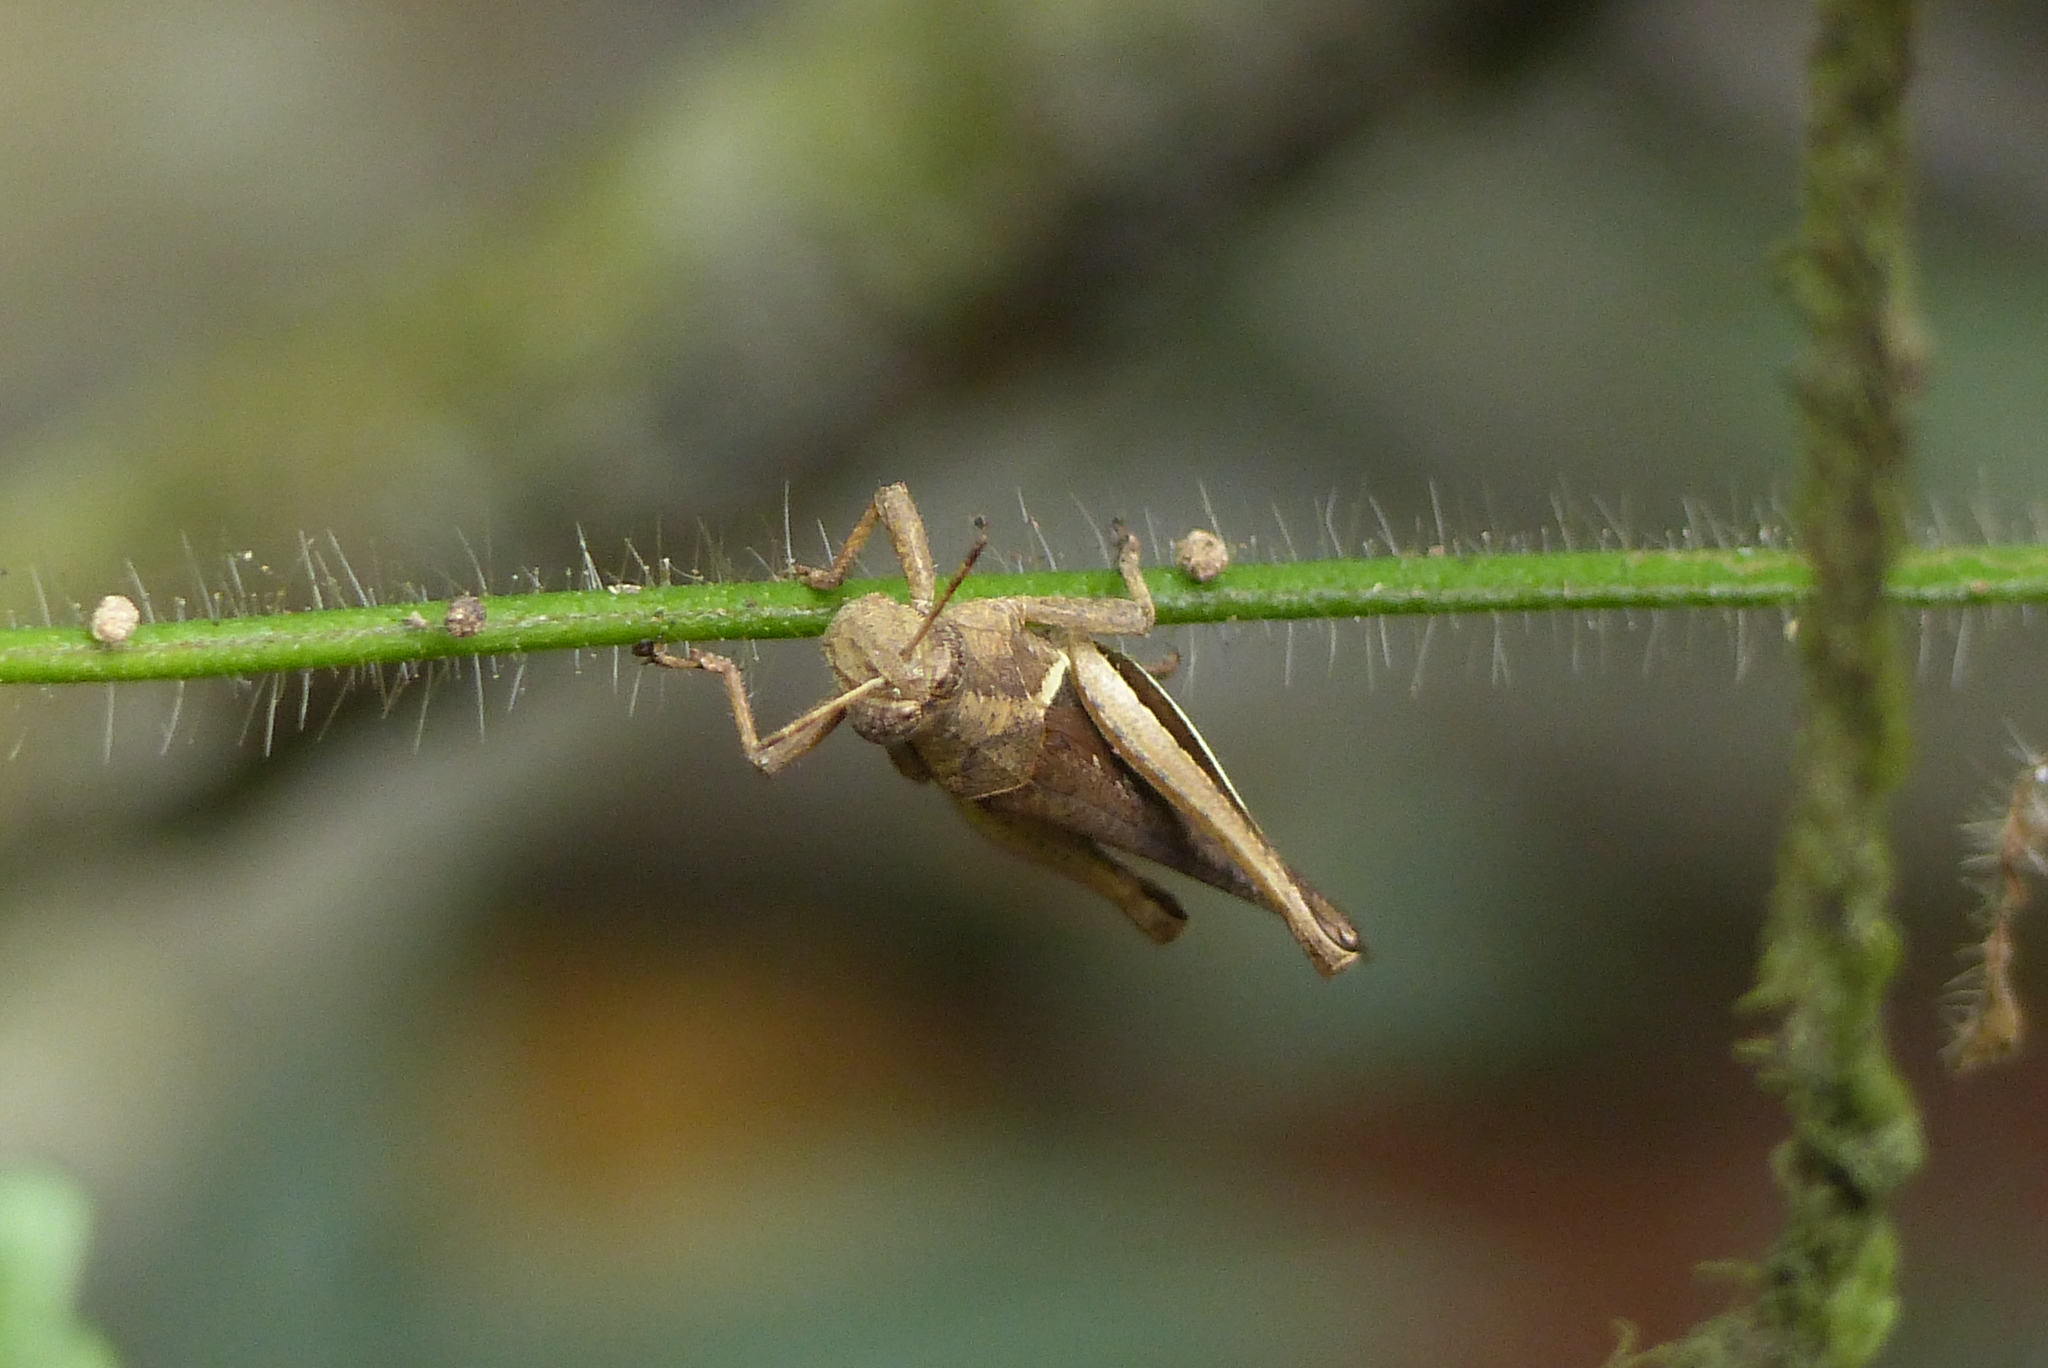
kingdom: Animalia
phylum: Arthropoda
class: Insecta
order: Orthoptera
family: Acrididae
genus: Abracris
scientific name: Abracris flavolineata
